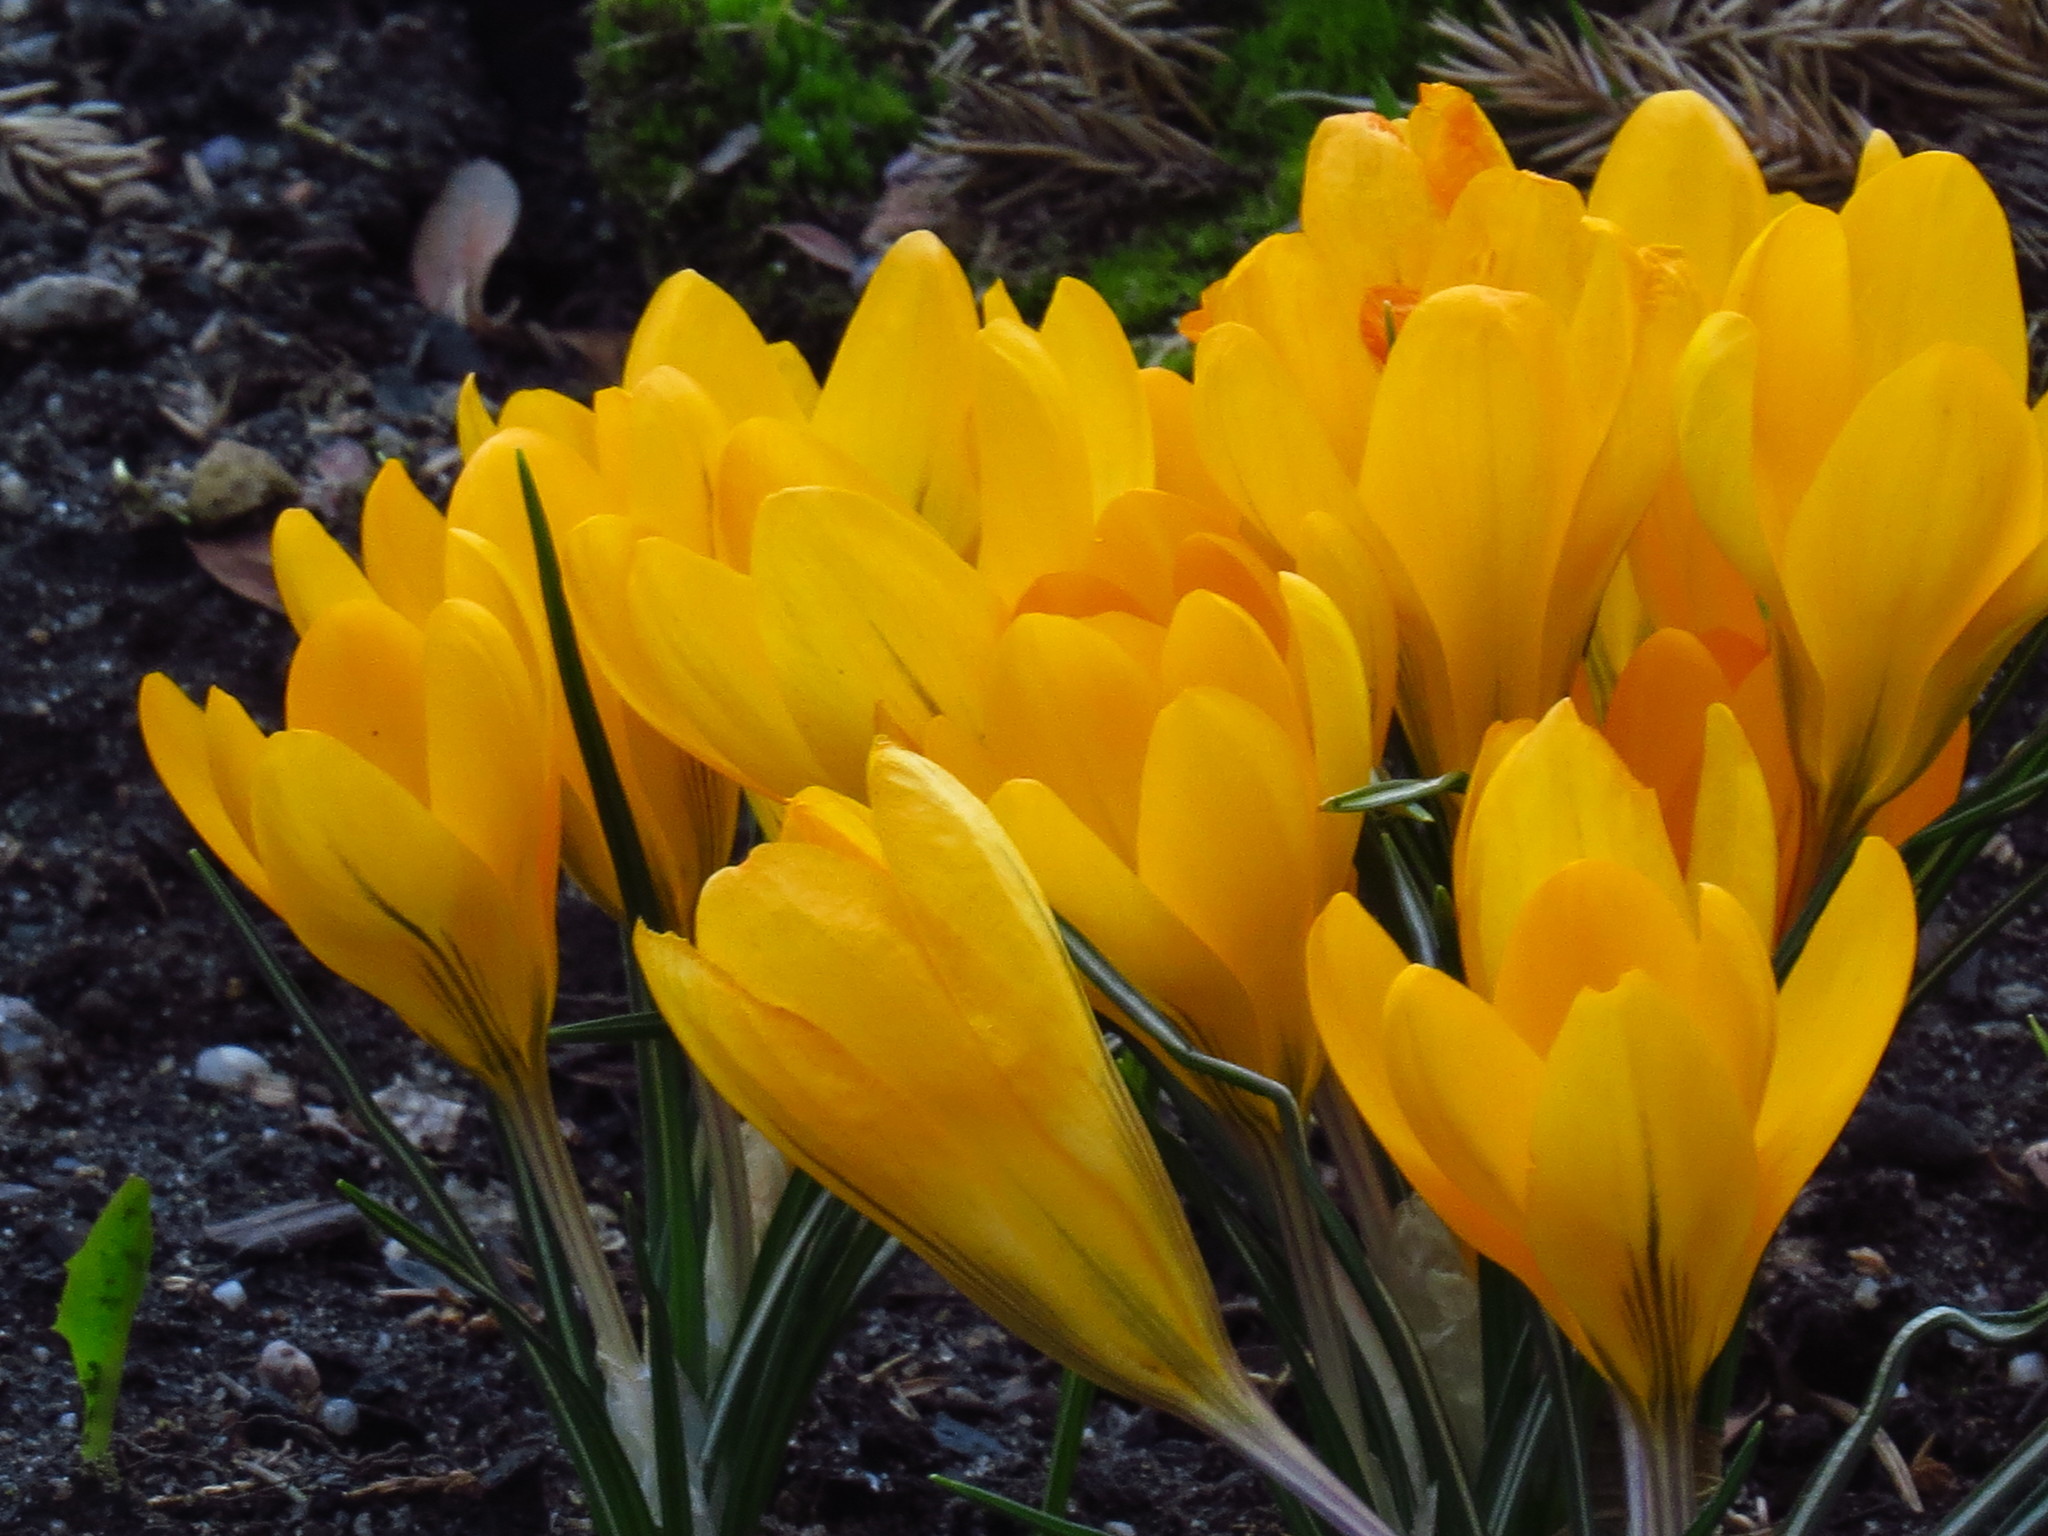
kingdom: Plantae
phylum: Tracheophyta
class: Liliopsida
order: Asparagales
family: Iridaceae
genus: Crocus
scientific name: Crocus chrysanthus
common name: Golden crocus
